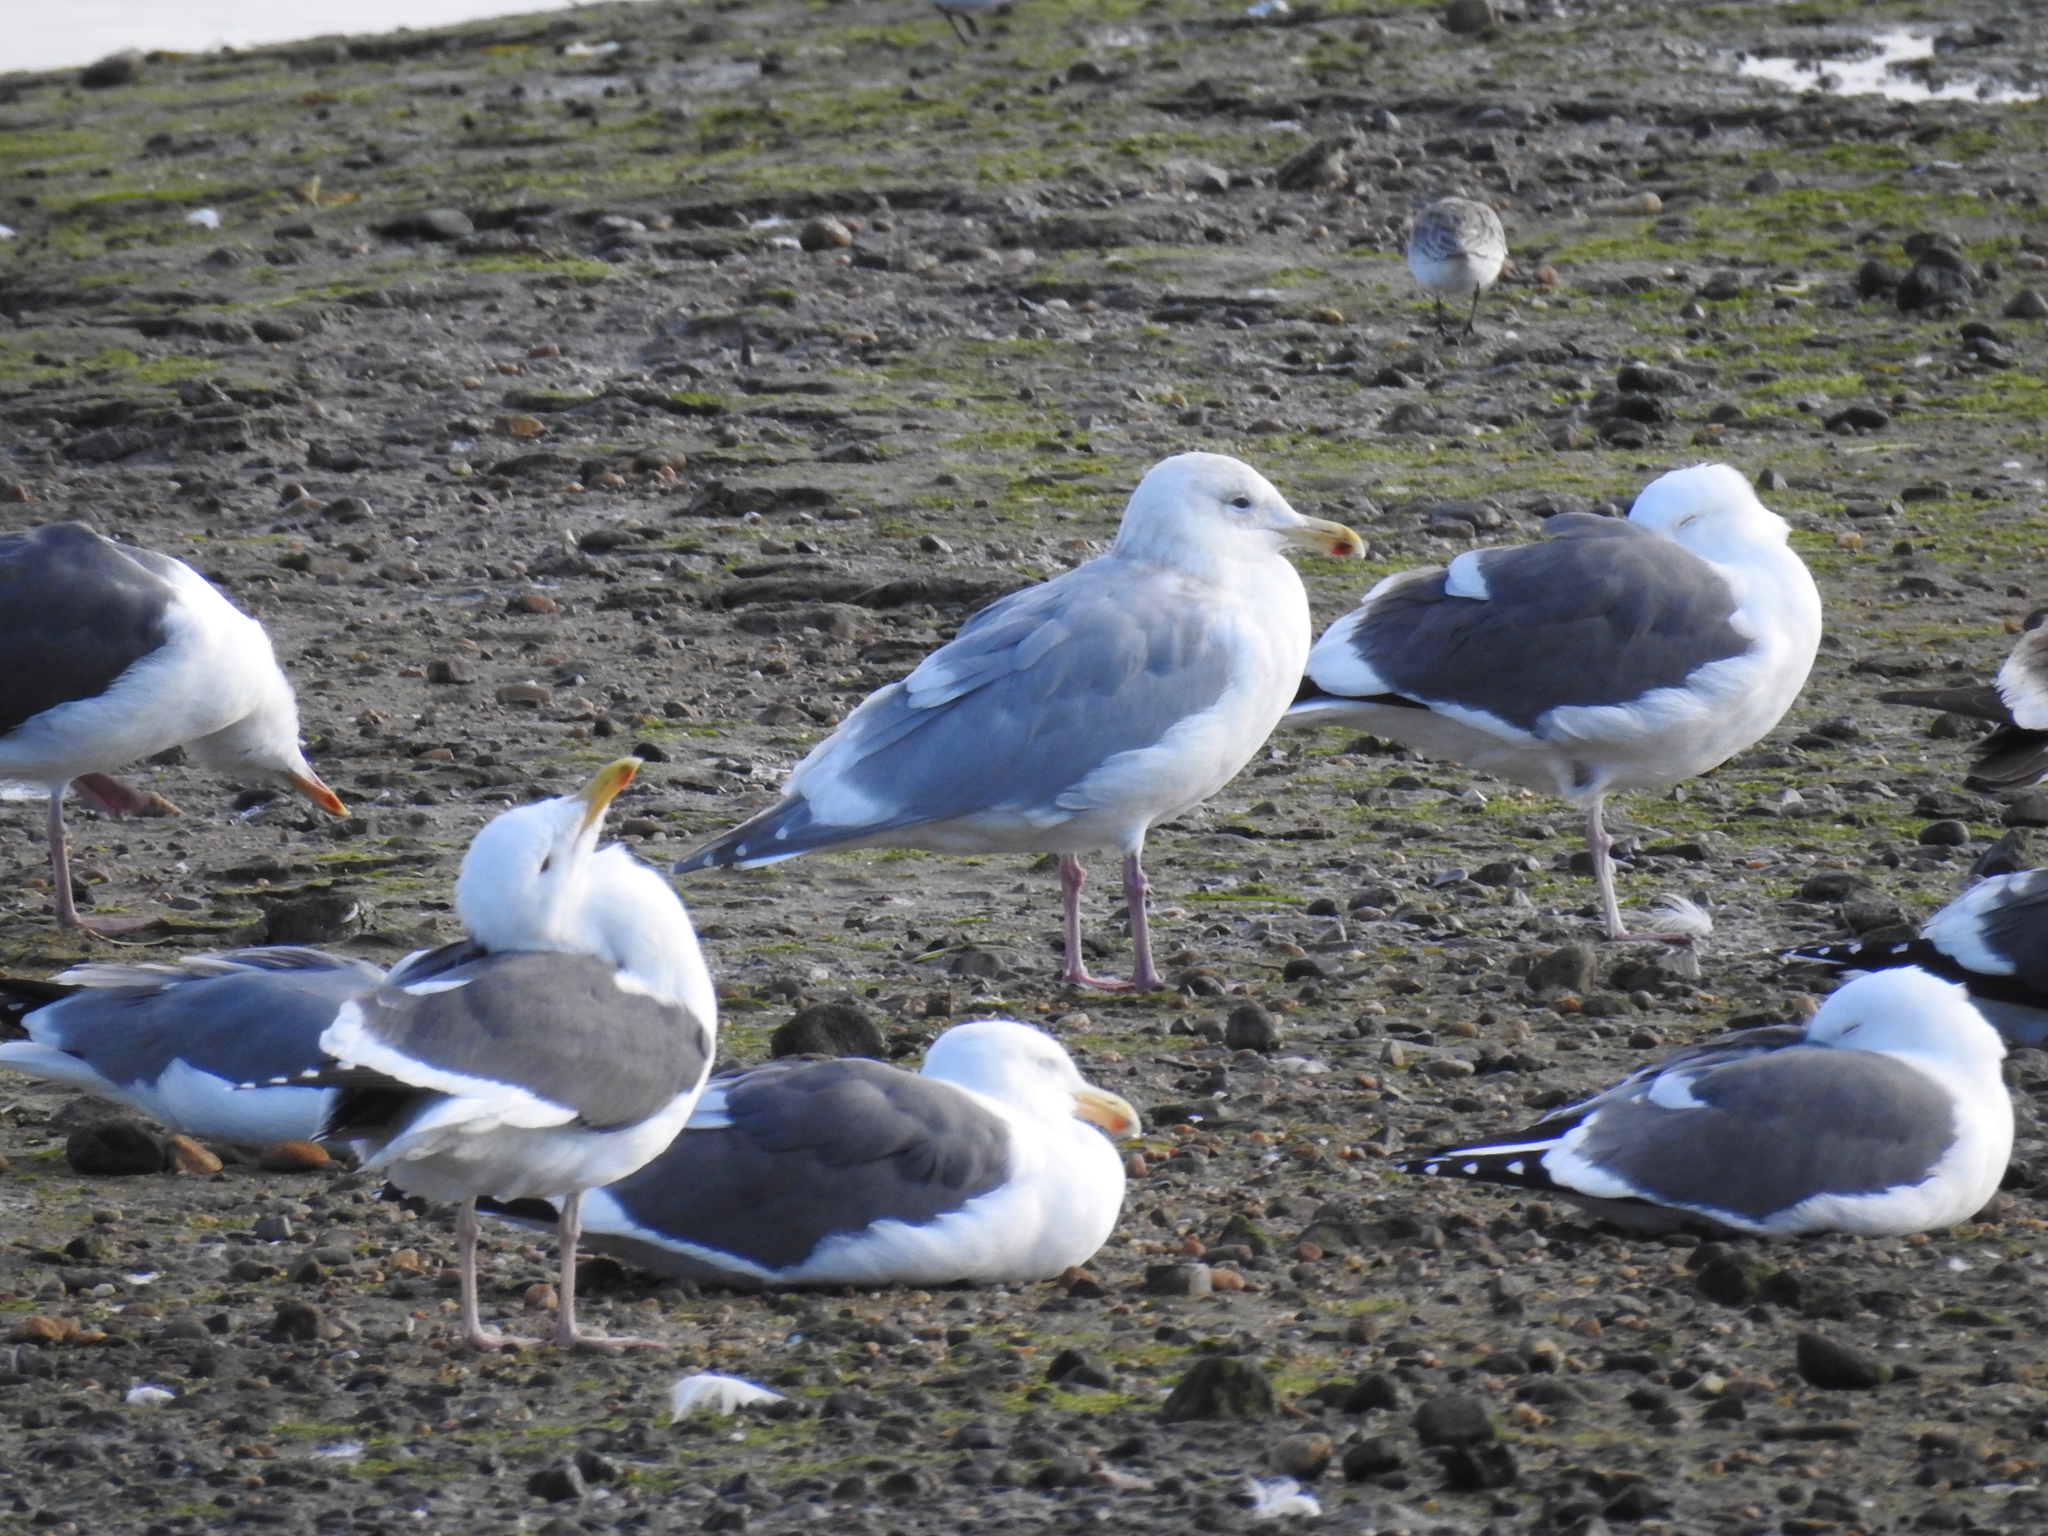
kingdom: Animalia
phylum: Chordata
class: Aves
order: Charadriiformes
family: Laridae
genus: Larus
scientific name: Larus glaucescens
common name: Glaucous-winged gull
